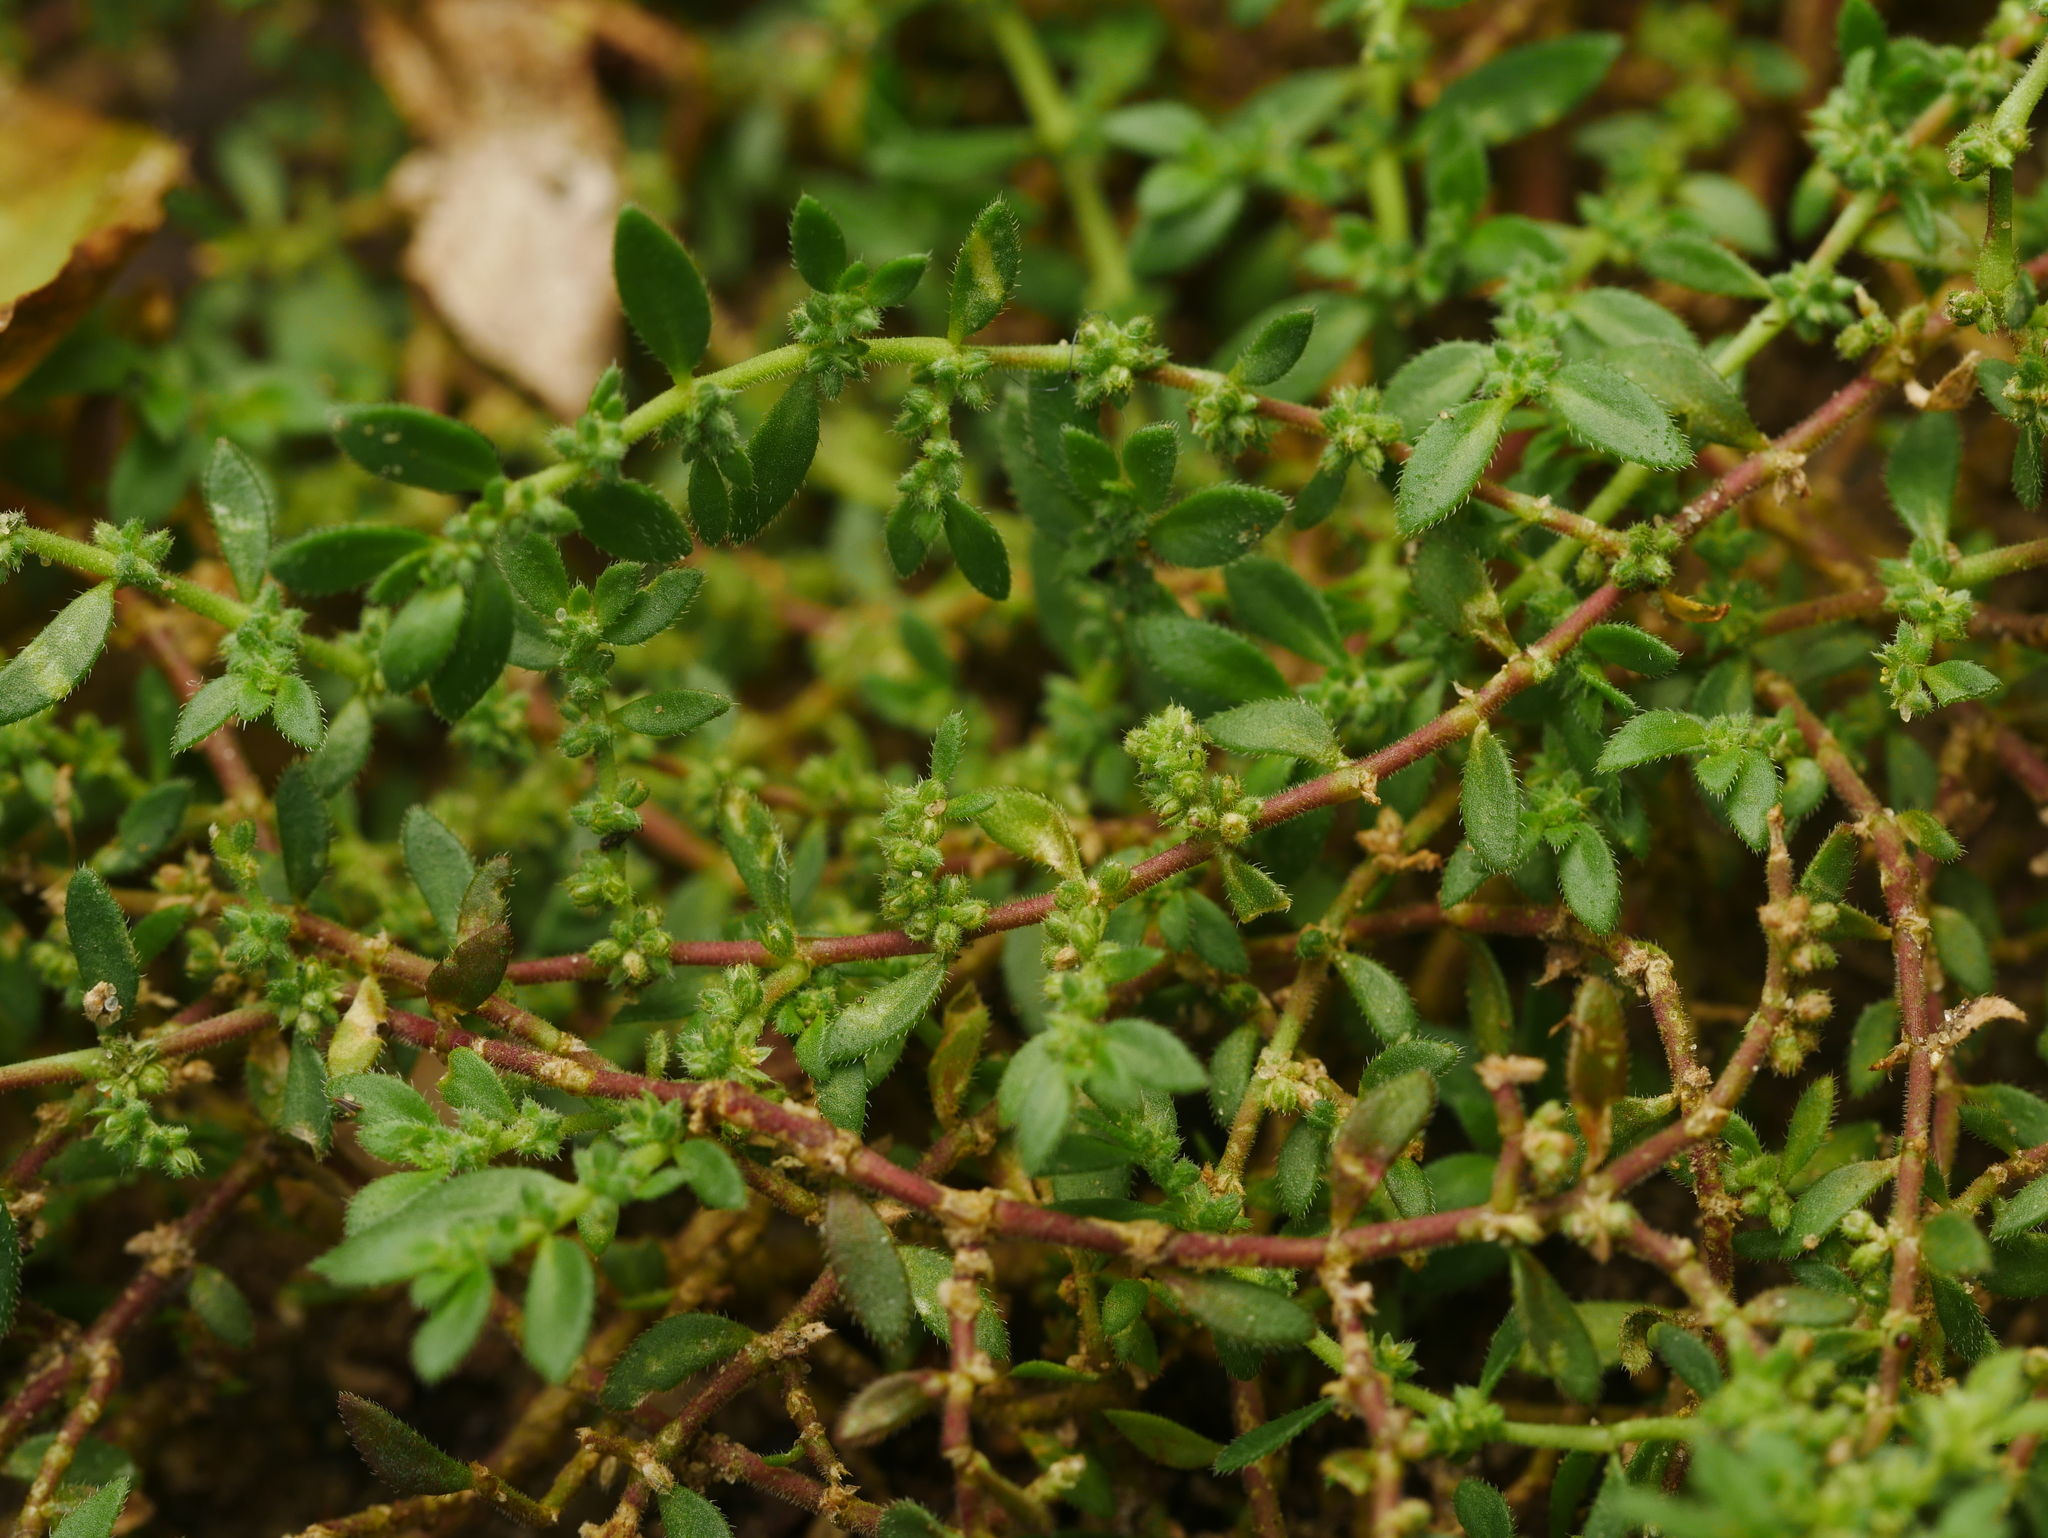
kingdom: Plantae
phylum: Tracheophyta
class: Magnoliopsida
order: Caryophyllales
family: Caryophyllaceae
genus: Herniaria
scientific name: Herniaria hirsuta
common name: Hairy rupturewort
